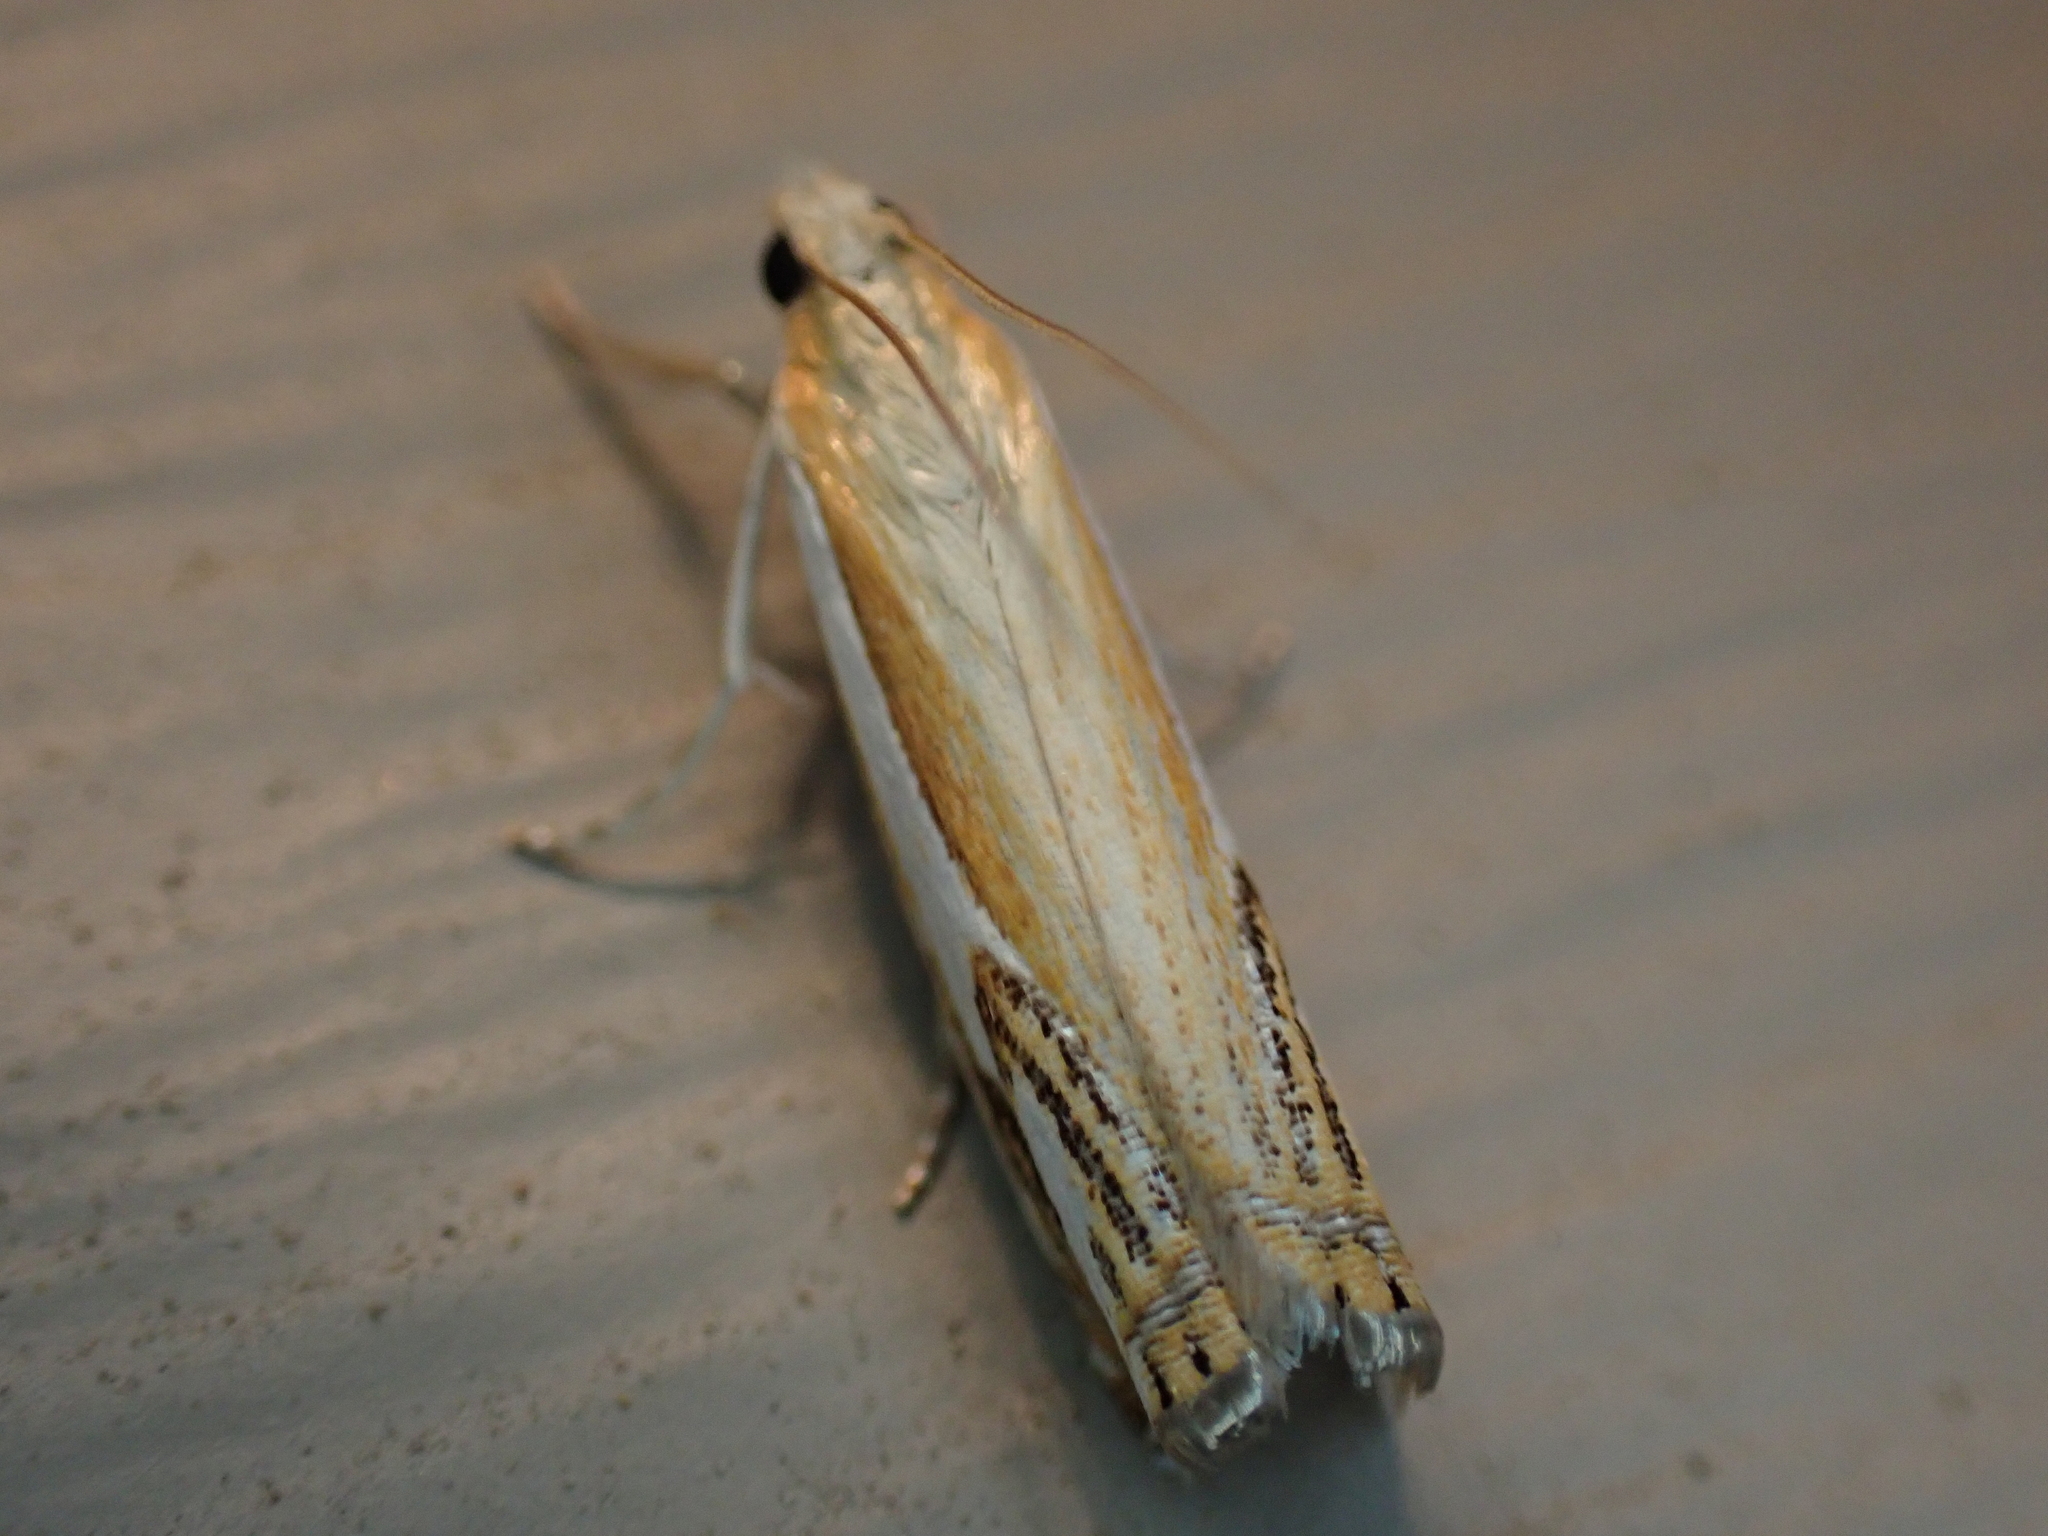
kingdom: Animalia
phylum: Arthropoda
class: Insecta
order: Lepidoptera
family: Crambidae
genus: Crambus
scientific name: Crambus agitatellus
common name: Double-banded grass-veneer
